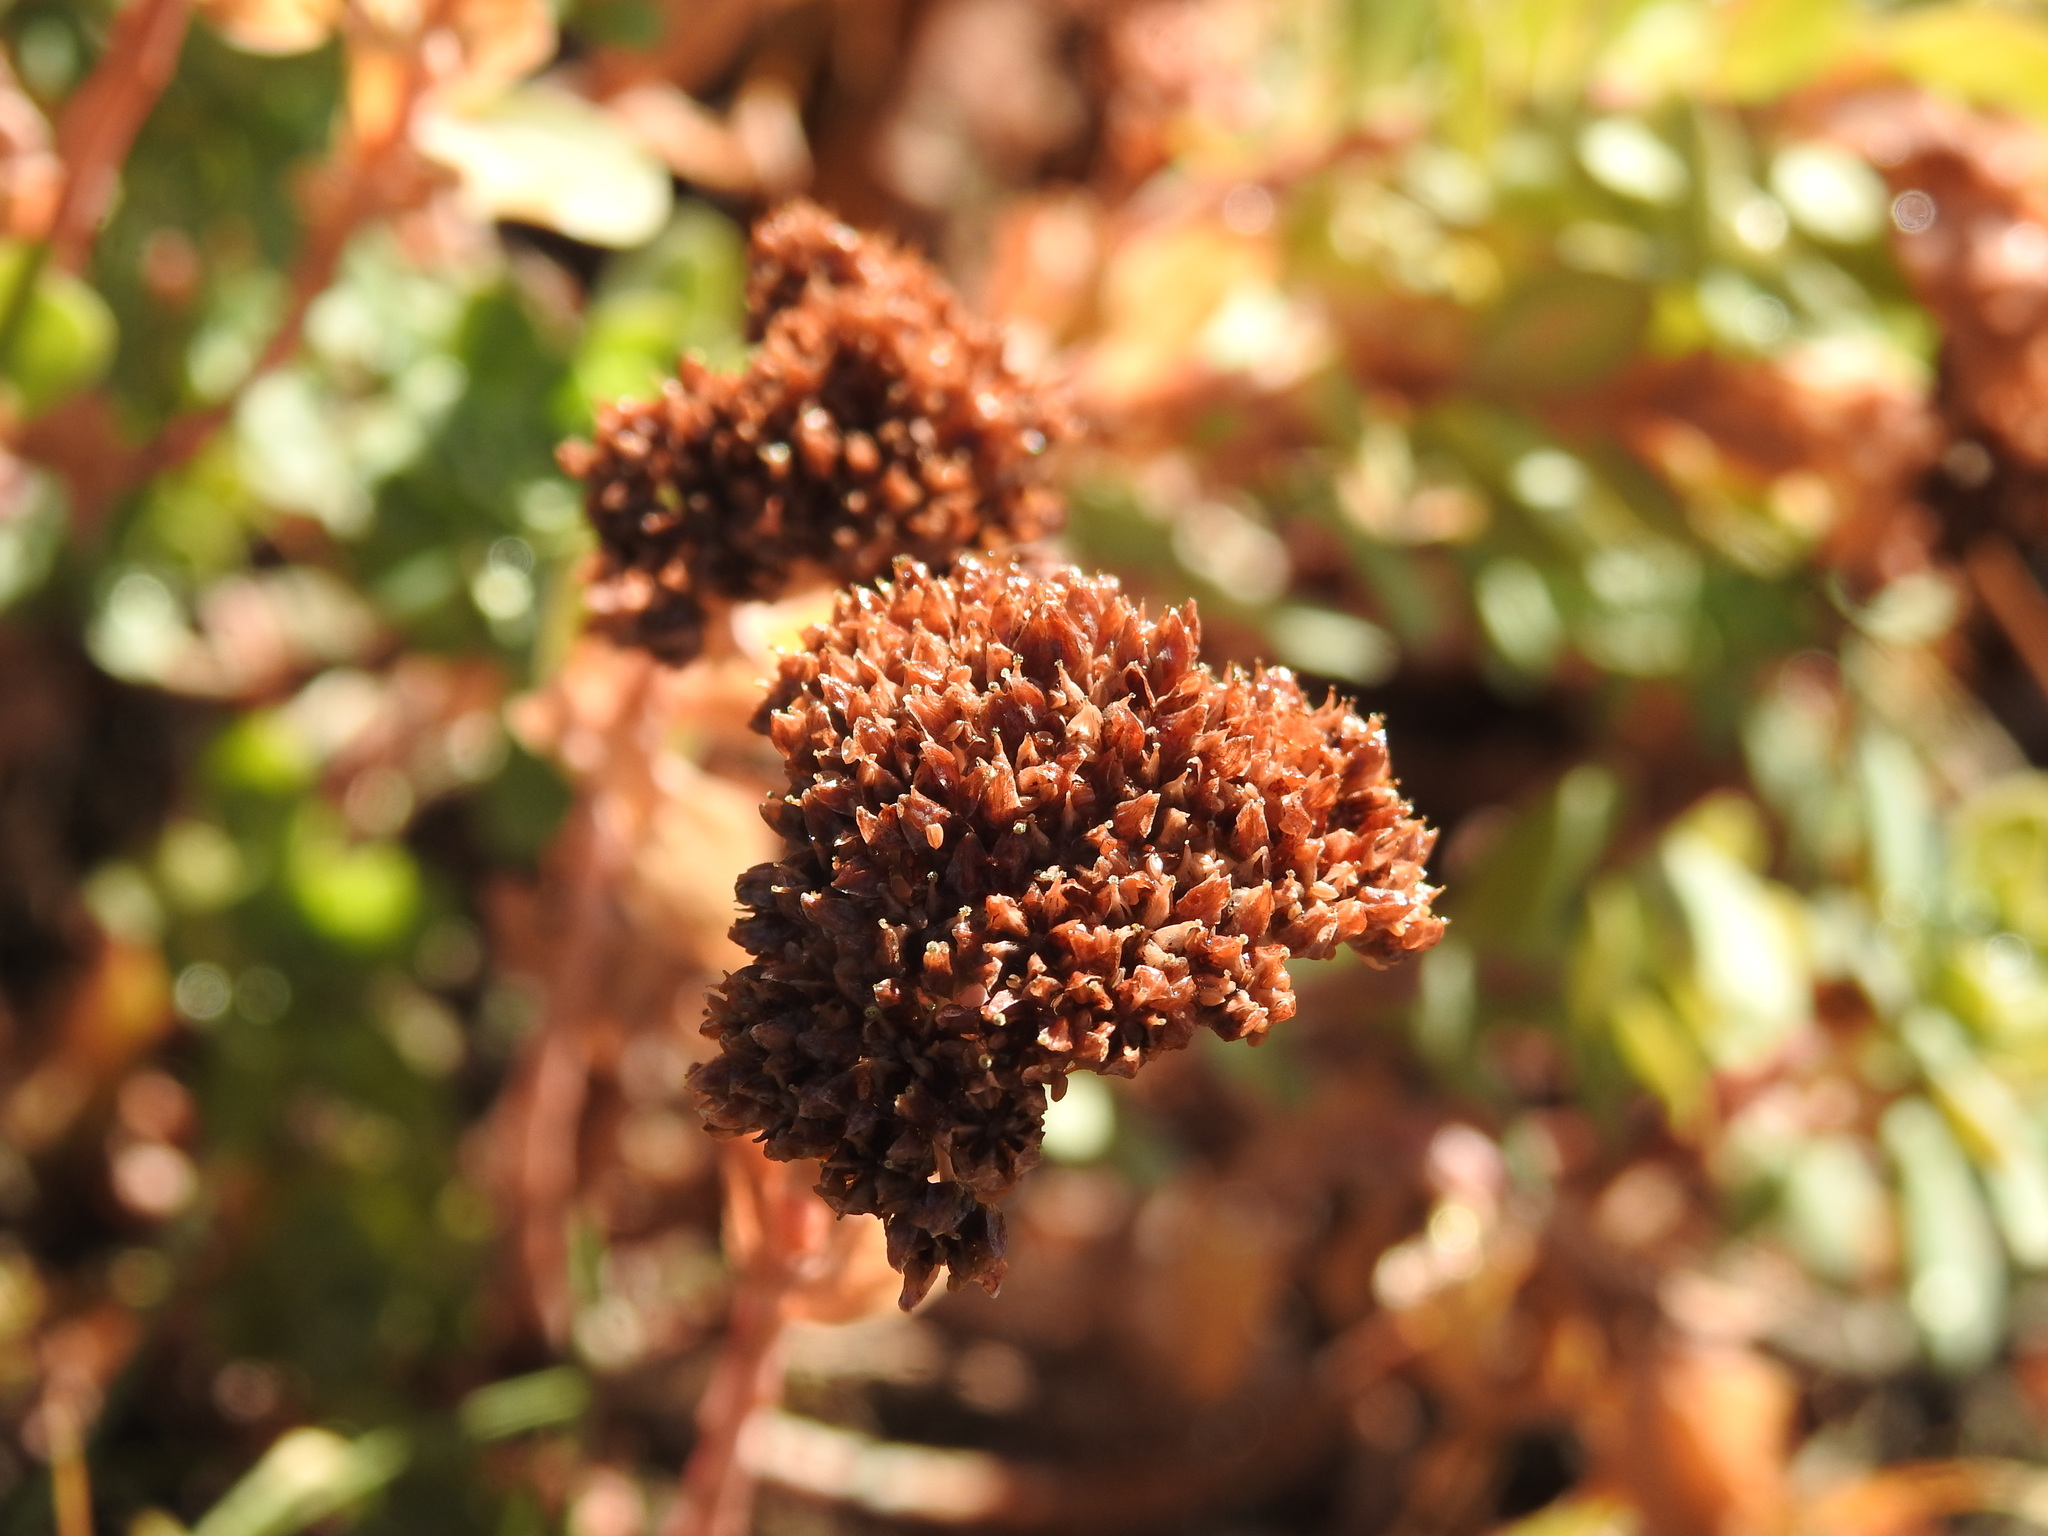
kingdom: Plantae
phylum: Tracheophyta
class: Magnoliopsida
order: Saxifragales
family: Crassulaceae
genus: Hylotelephium
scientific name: Hylotelephium anacampseros
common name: Love-restorer
